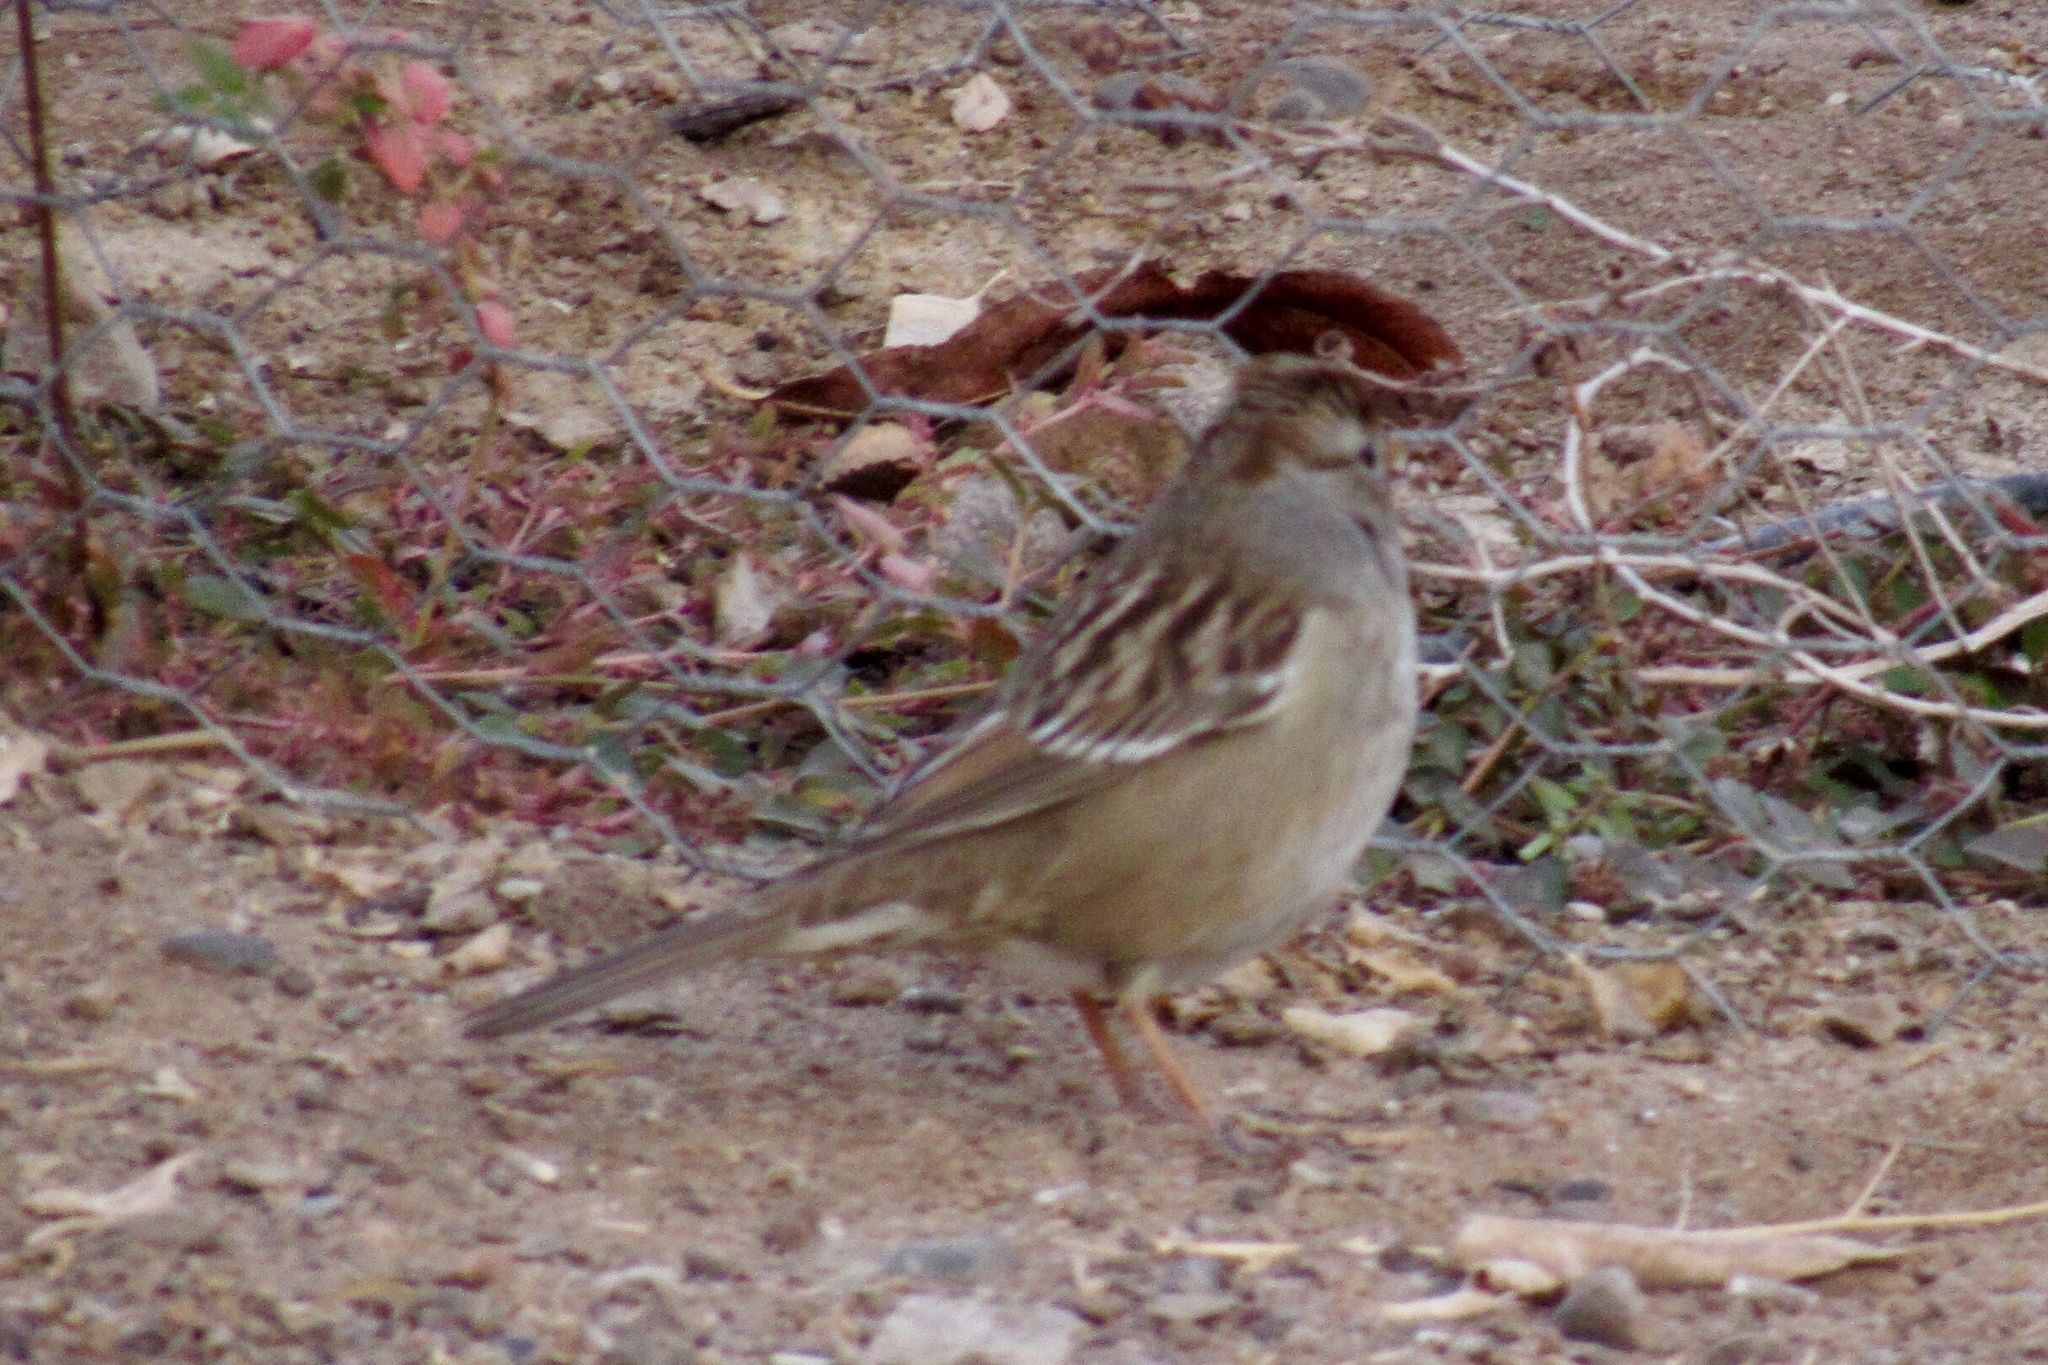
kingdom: Animalia
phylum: Chordata
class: Aves
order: Passeriformes
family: Passerellidae
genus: Zonotrichia
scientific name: Zonotrichia leucophrys
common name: White-crowned sparrow
